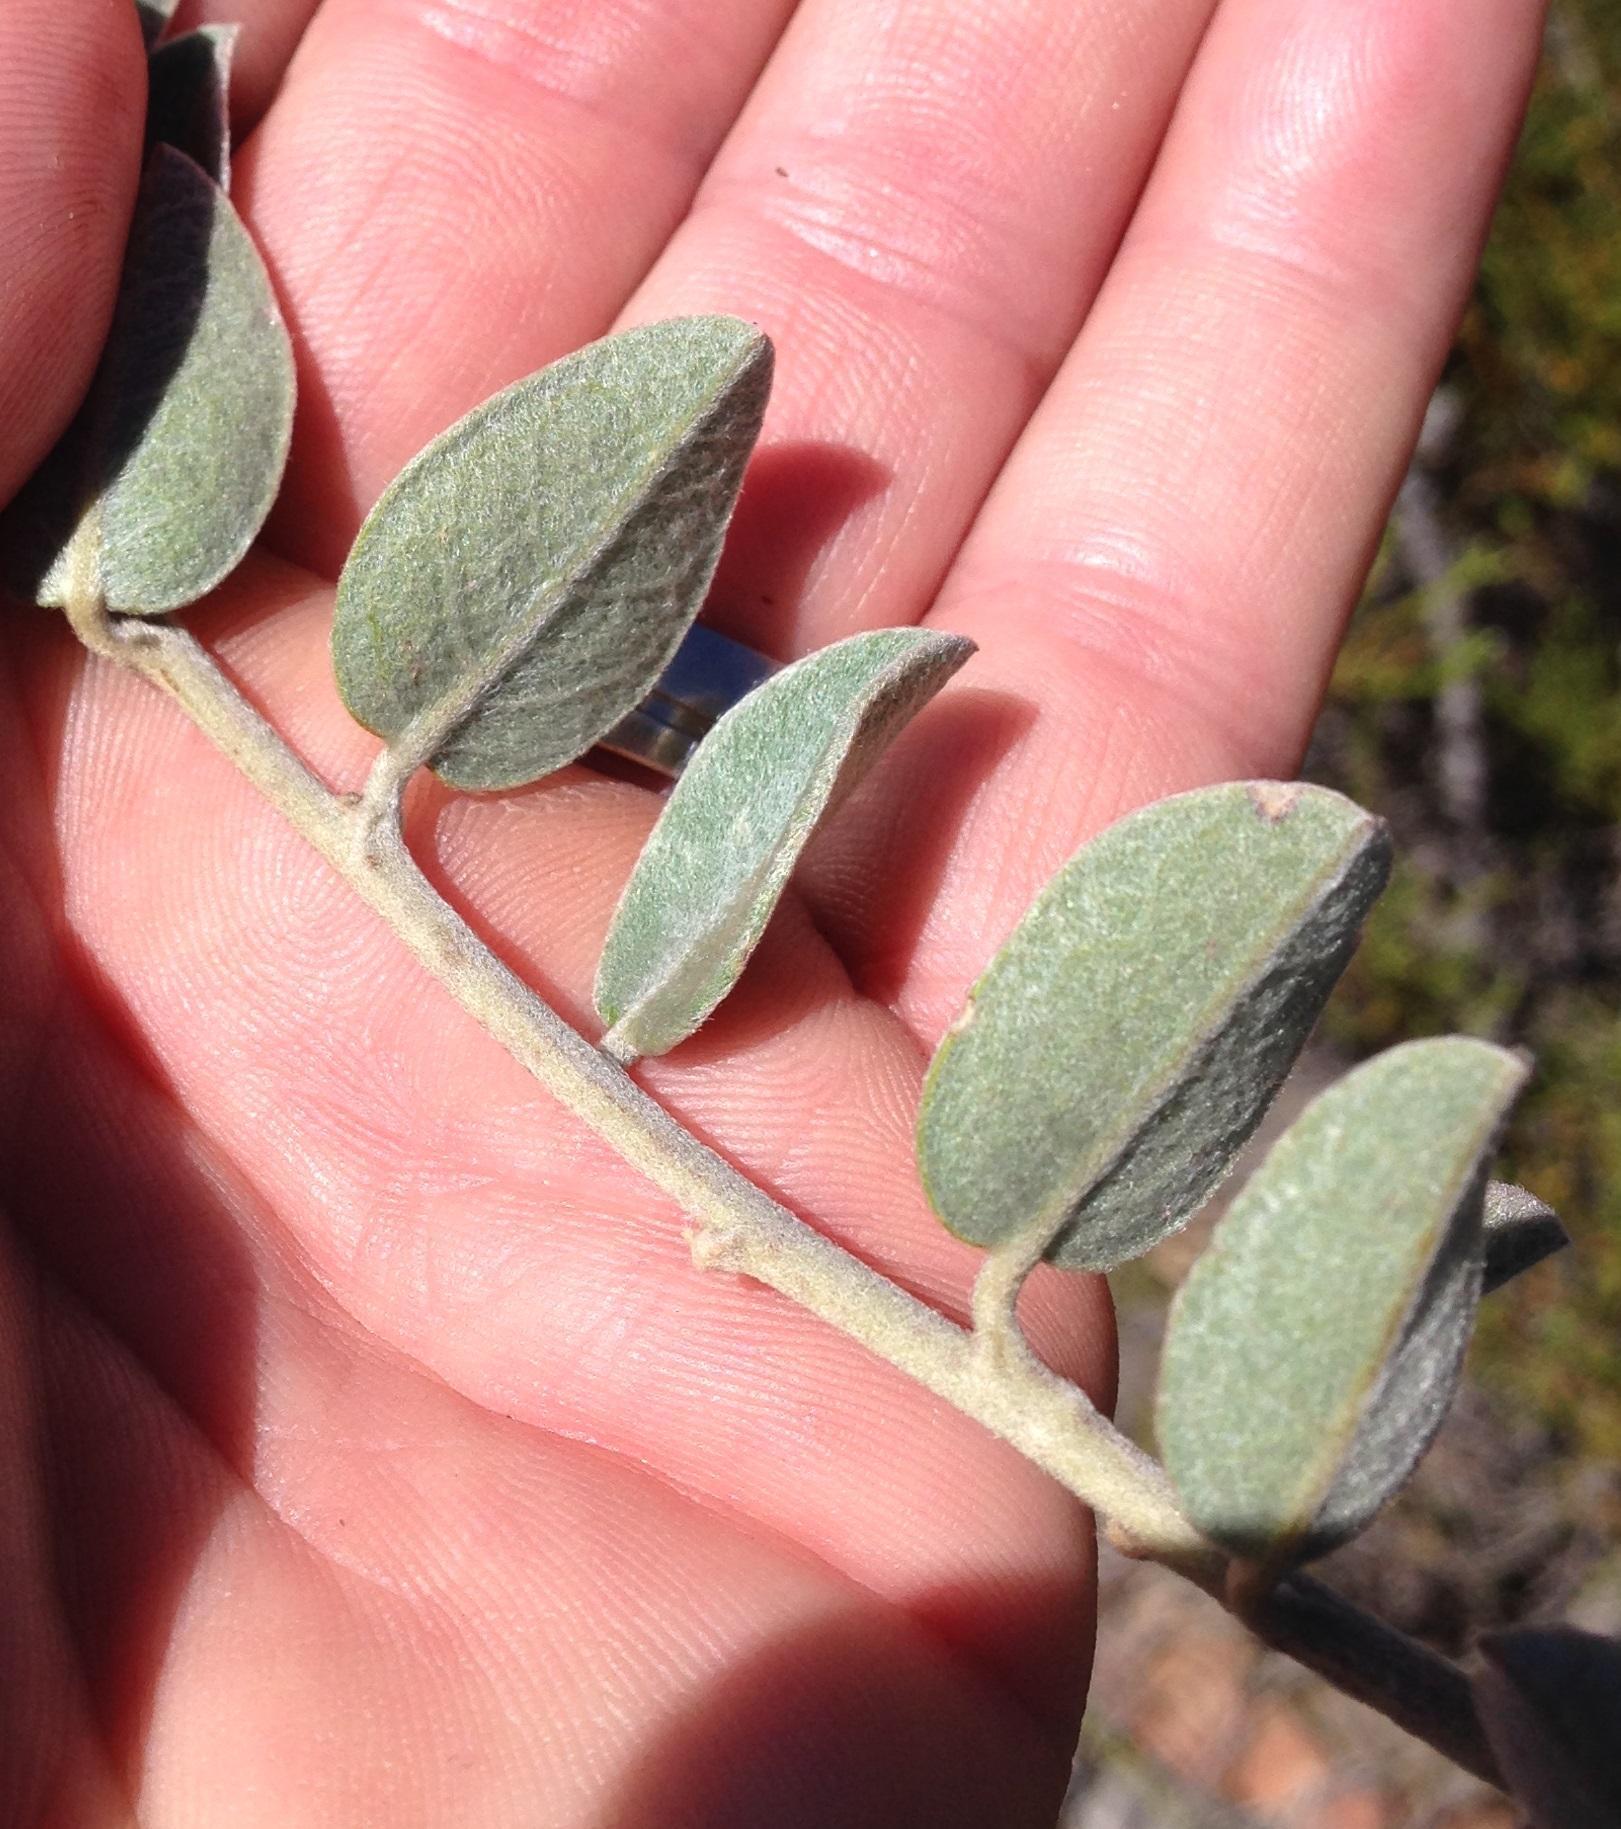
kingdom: Plantae
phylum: Tracheophyta
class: Magnoliopsida
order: Fabales
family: Fabaceae
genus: Podalyria
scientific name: Podalyria burchellii
